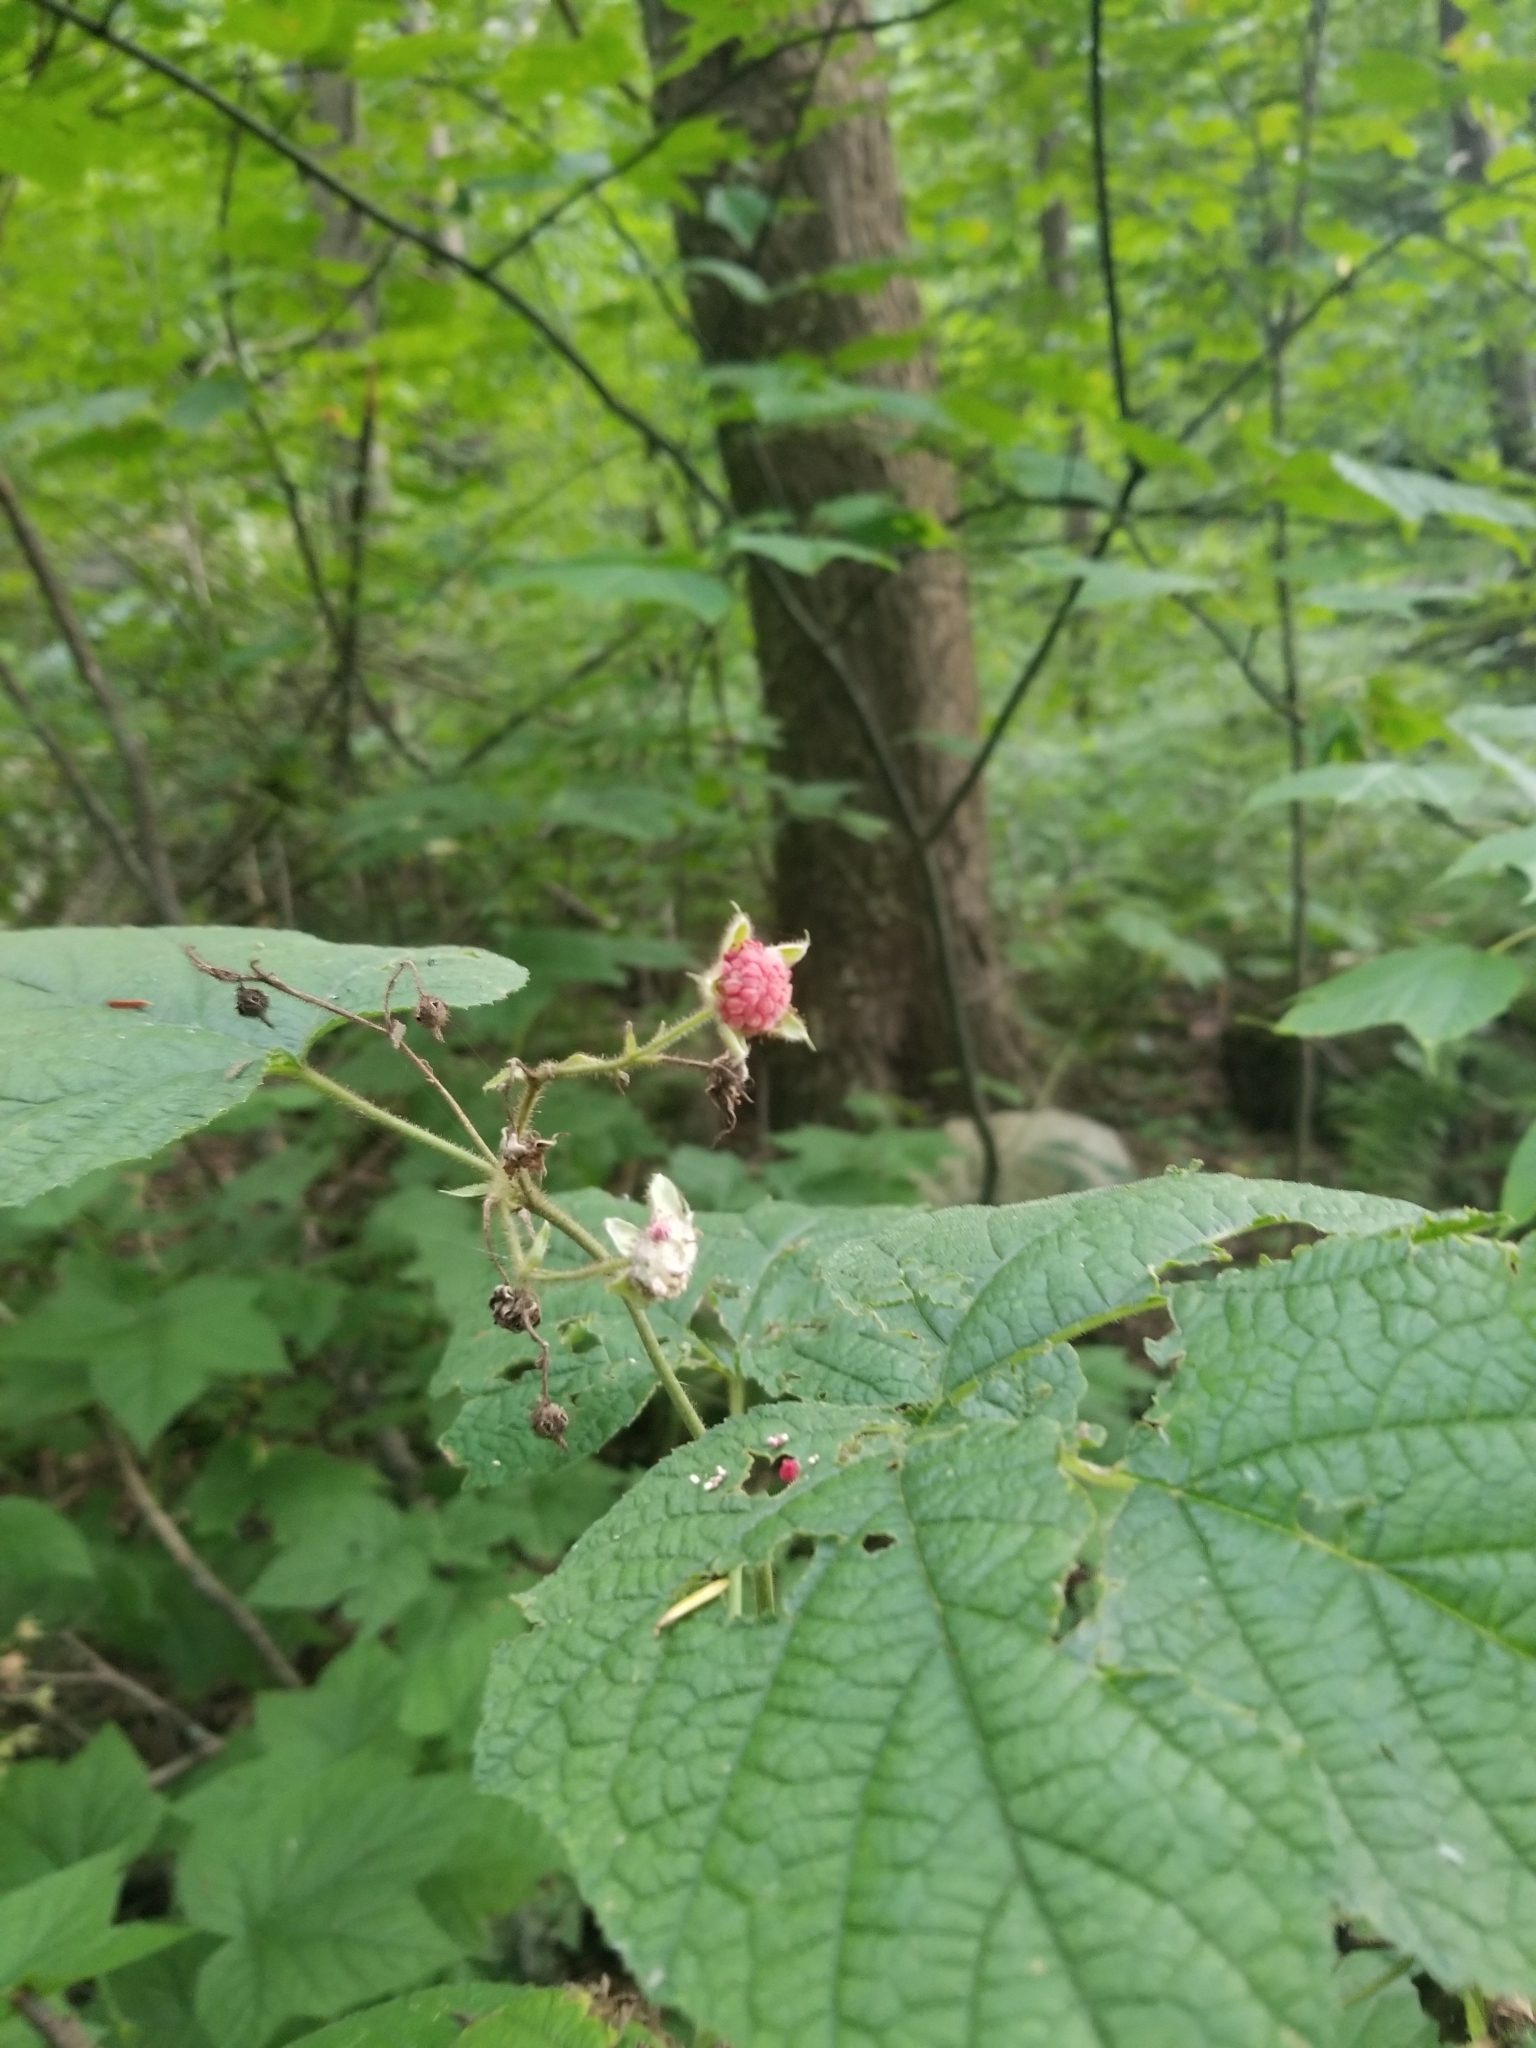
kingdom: Plantae
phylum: Tracheophyta
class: Magnoliopsida
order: Rosales
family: Rosaceae
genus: Rubus
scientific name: Rubus odoratus
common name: Purple-flowered raspberry
